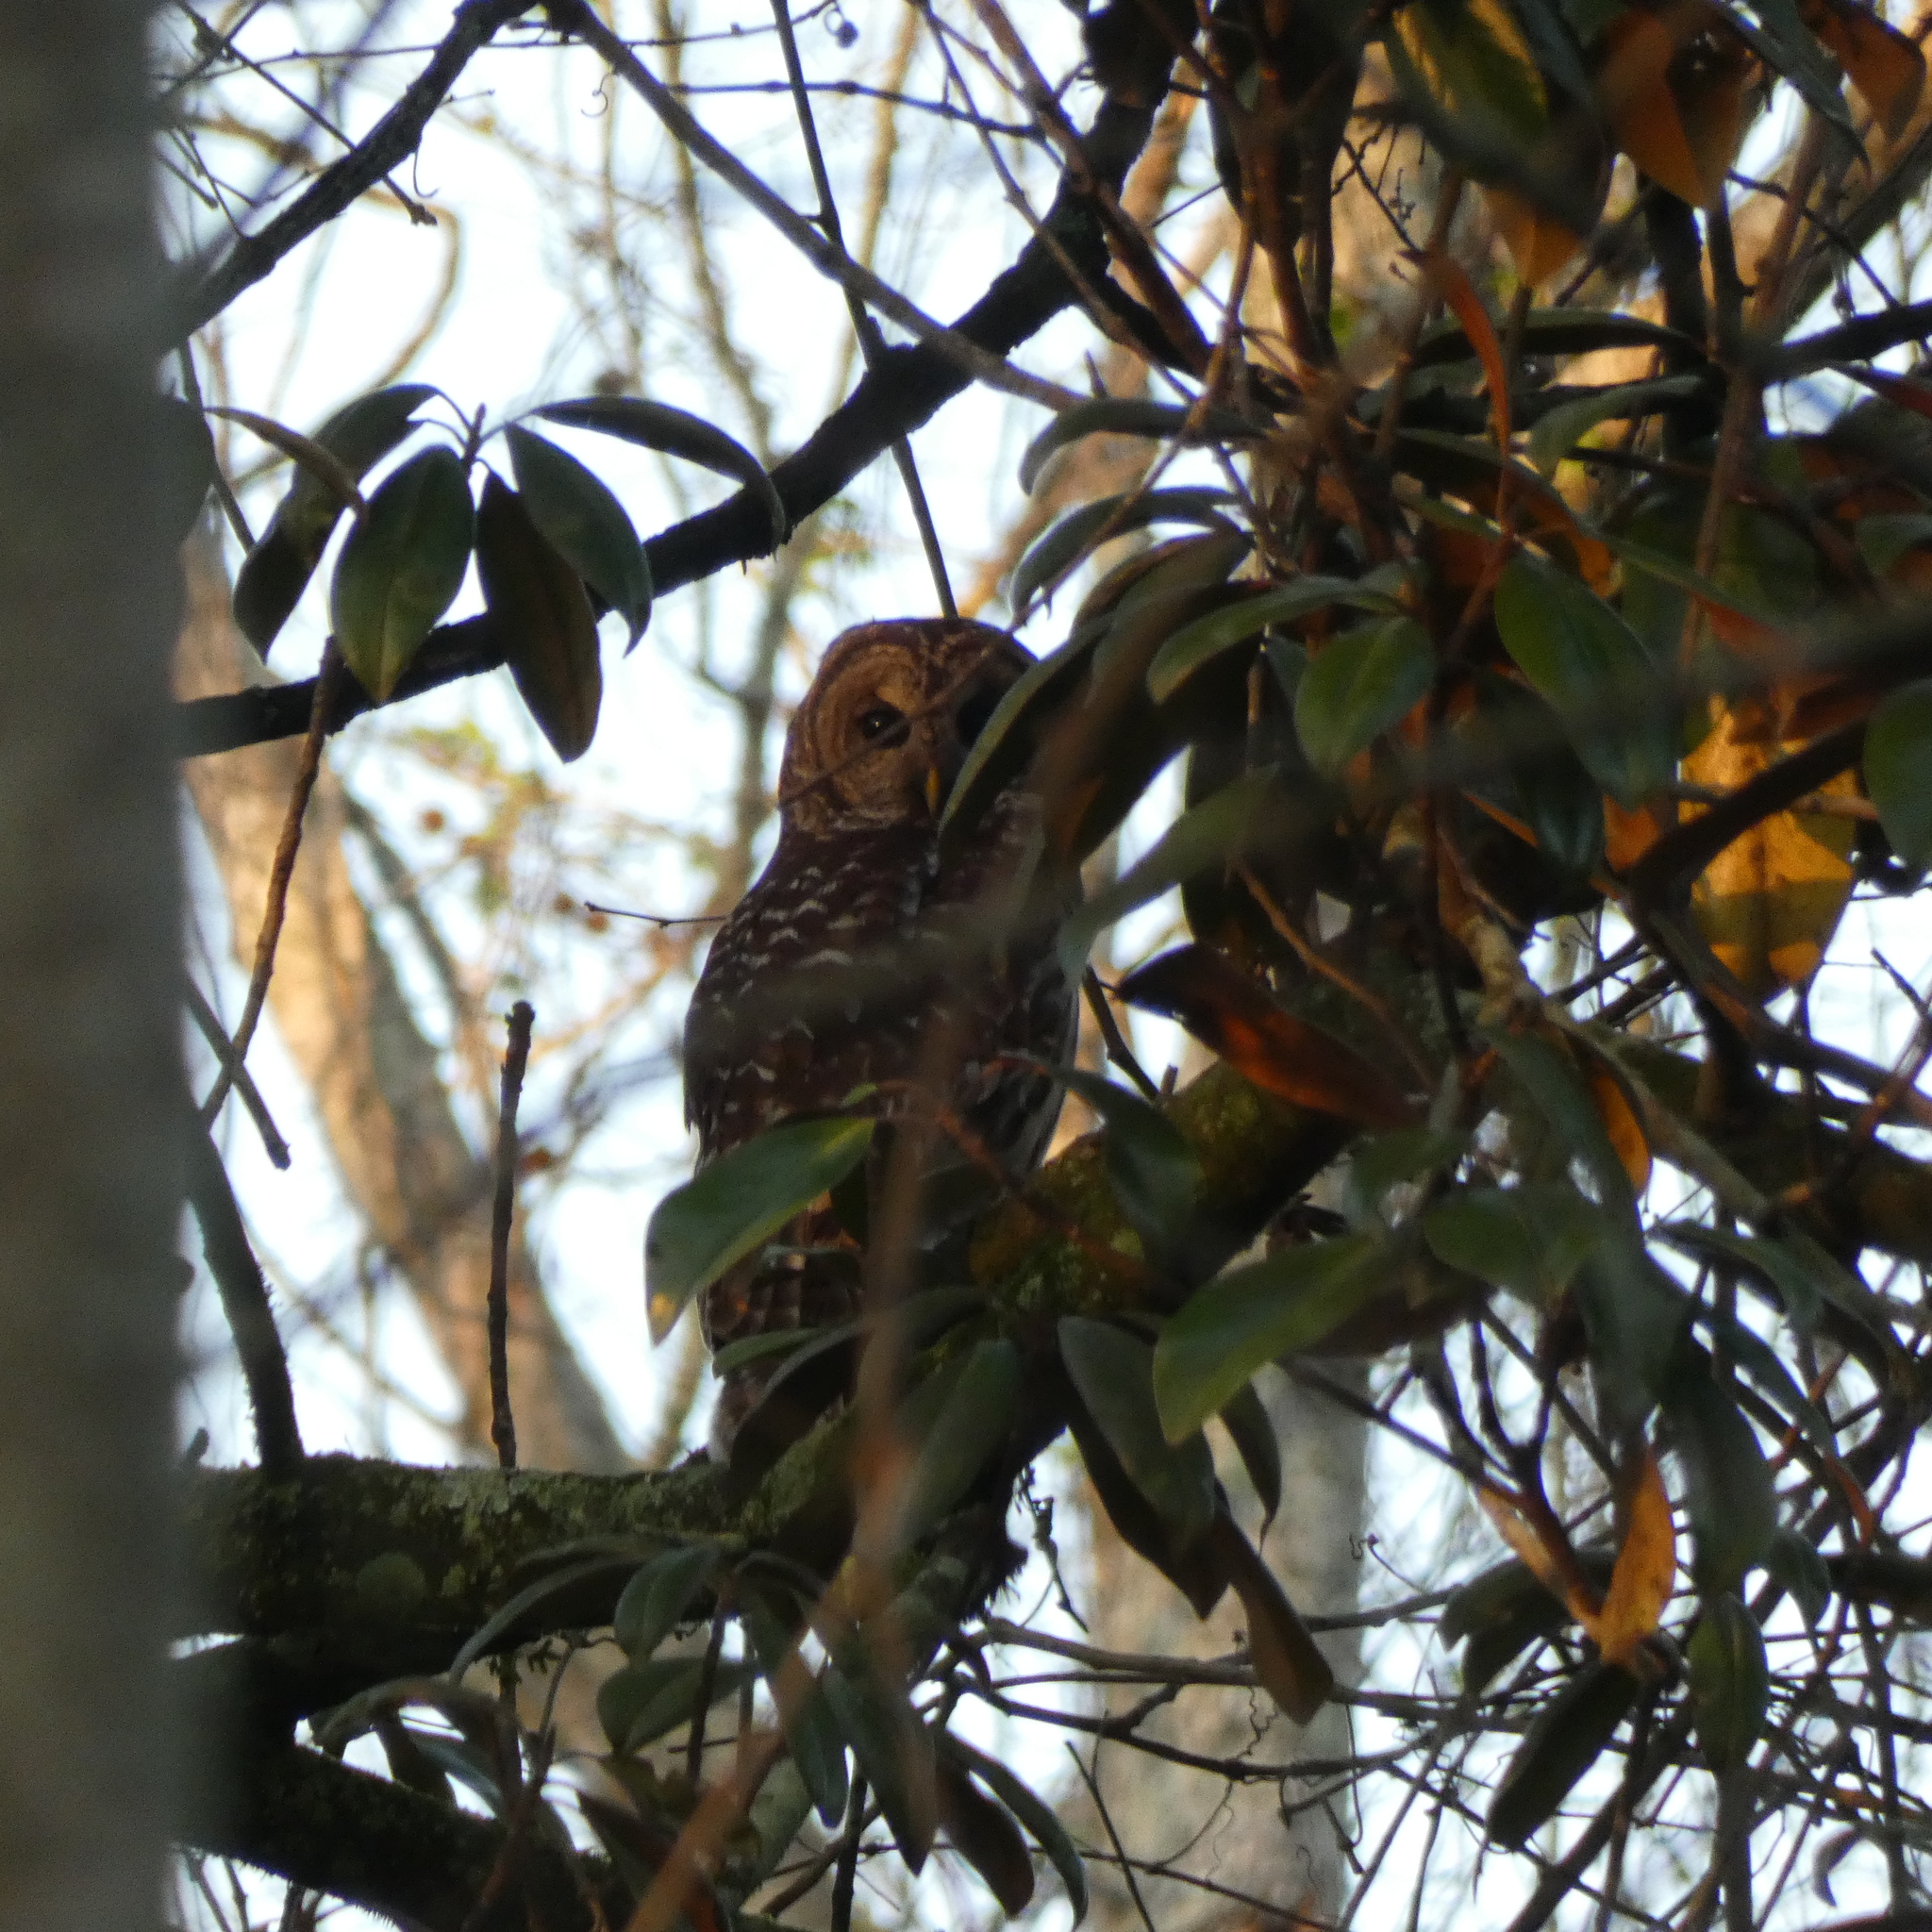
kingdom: Animalia
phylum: Chordata
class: Aves
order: Strigiformes
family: Strigidae
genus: Strix
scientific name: Strix varia
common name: Barred owl
